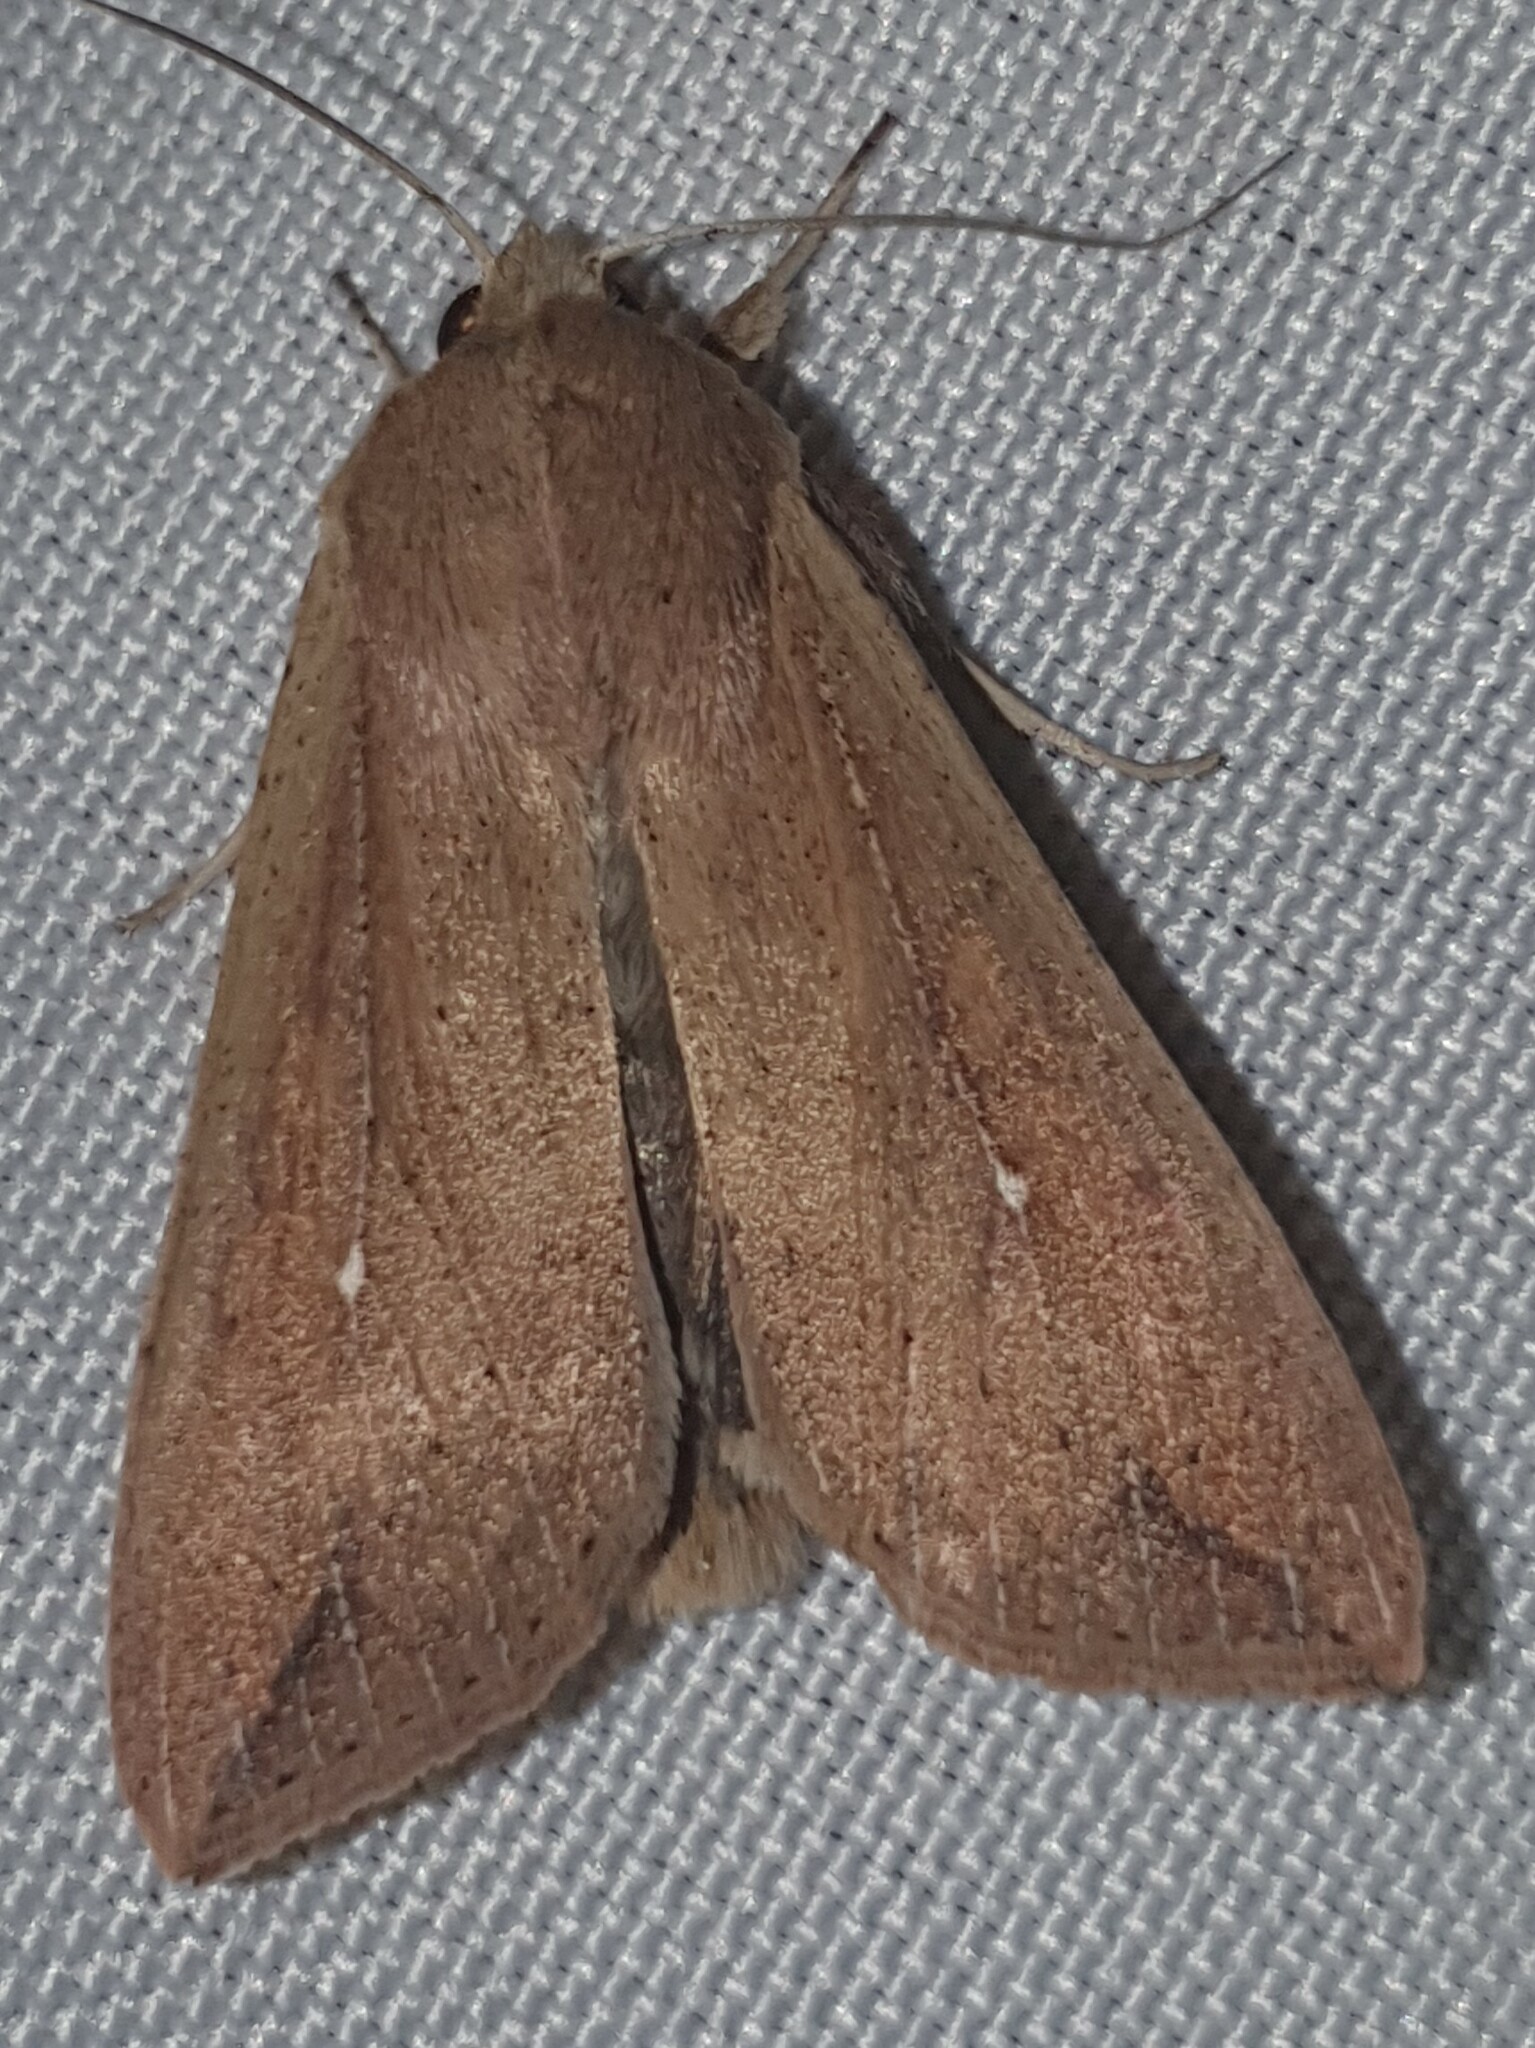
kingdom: Animalia
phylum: Arthropoda
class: Insecta
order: Lepidoptera
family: Noctuidae
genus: Mythimna
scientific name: Mythimna unipuncta
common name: White-speck
